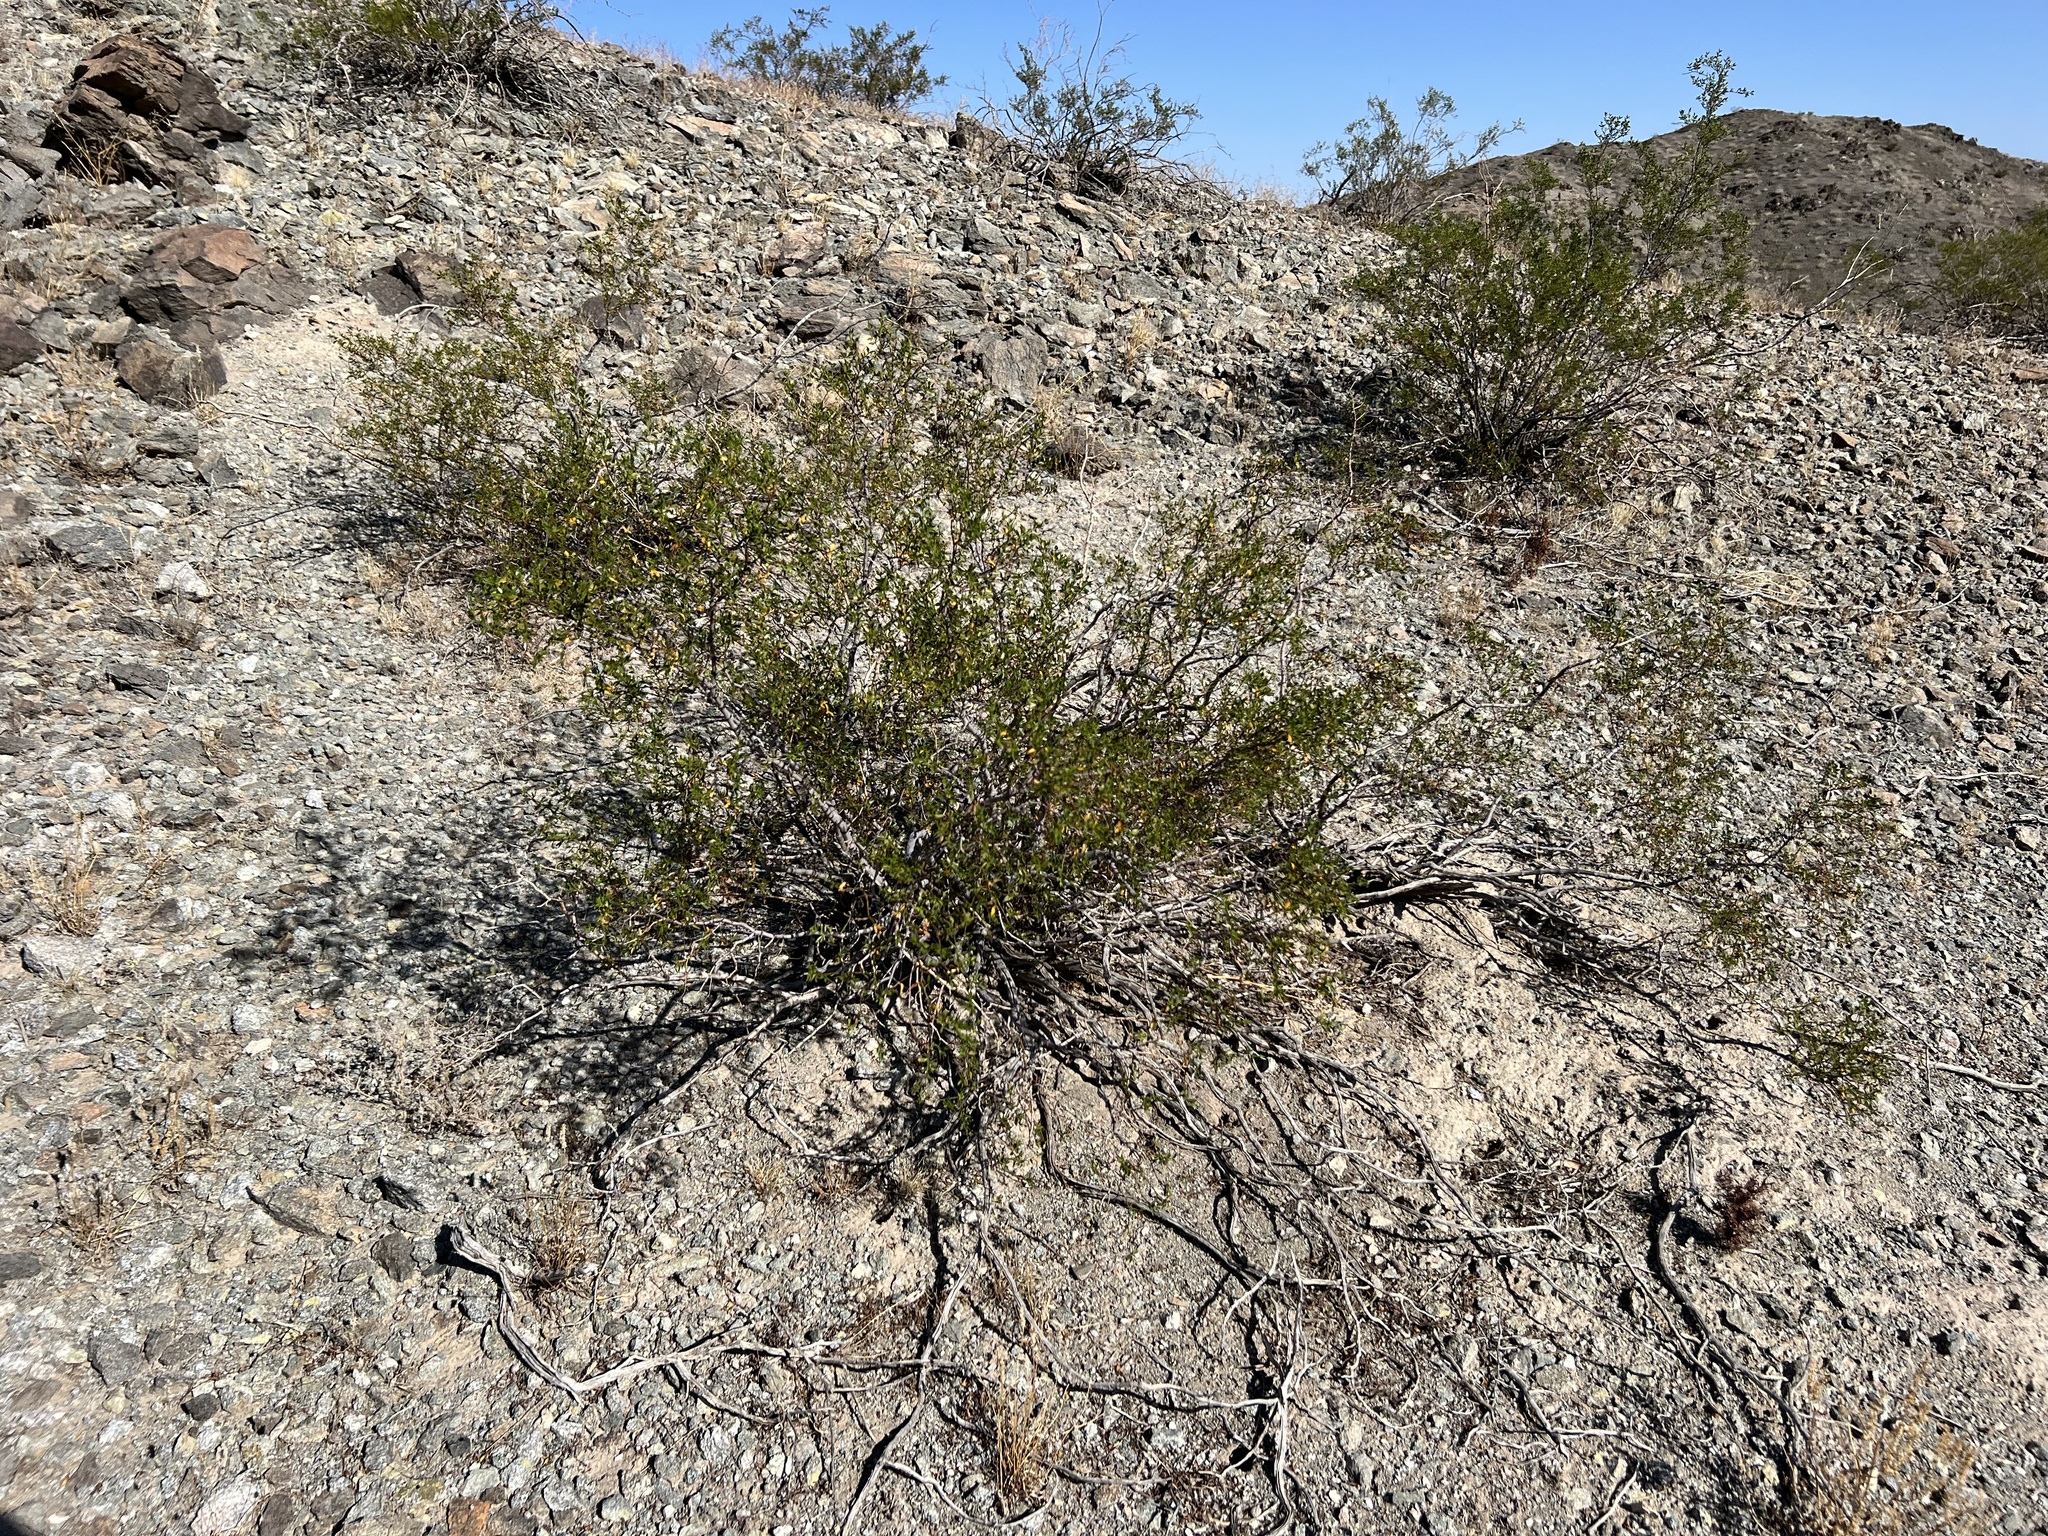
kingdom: Plantae
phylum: Tracheophyta
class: Magnoliopsida
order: Zygophyllales
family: Zygophyllaceae
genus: Larrea
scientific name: Larrea tridentata
